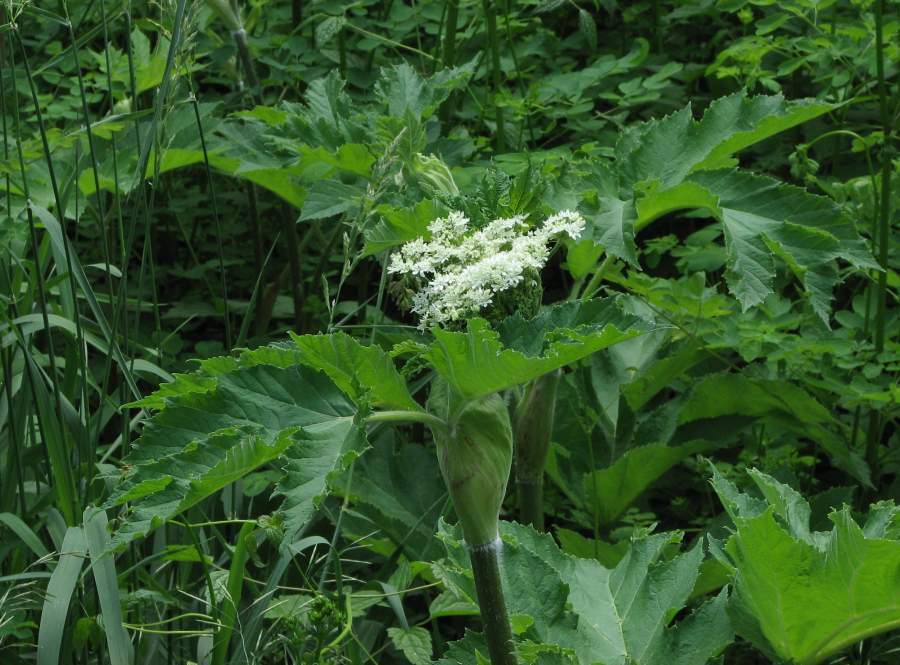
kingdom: Plantae
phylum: Tracheophyta
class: Magnoliopsida
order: Apiales
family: Apiaceae
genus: Heracleum
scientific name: Heracleum maximum
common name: American cow parsnip
